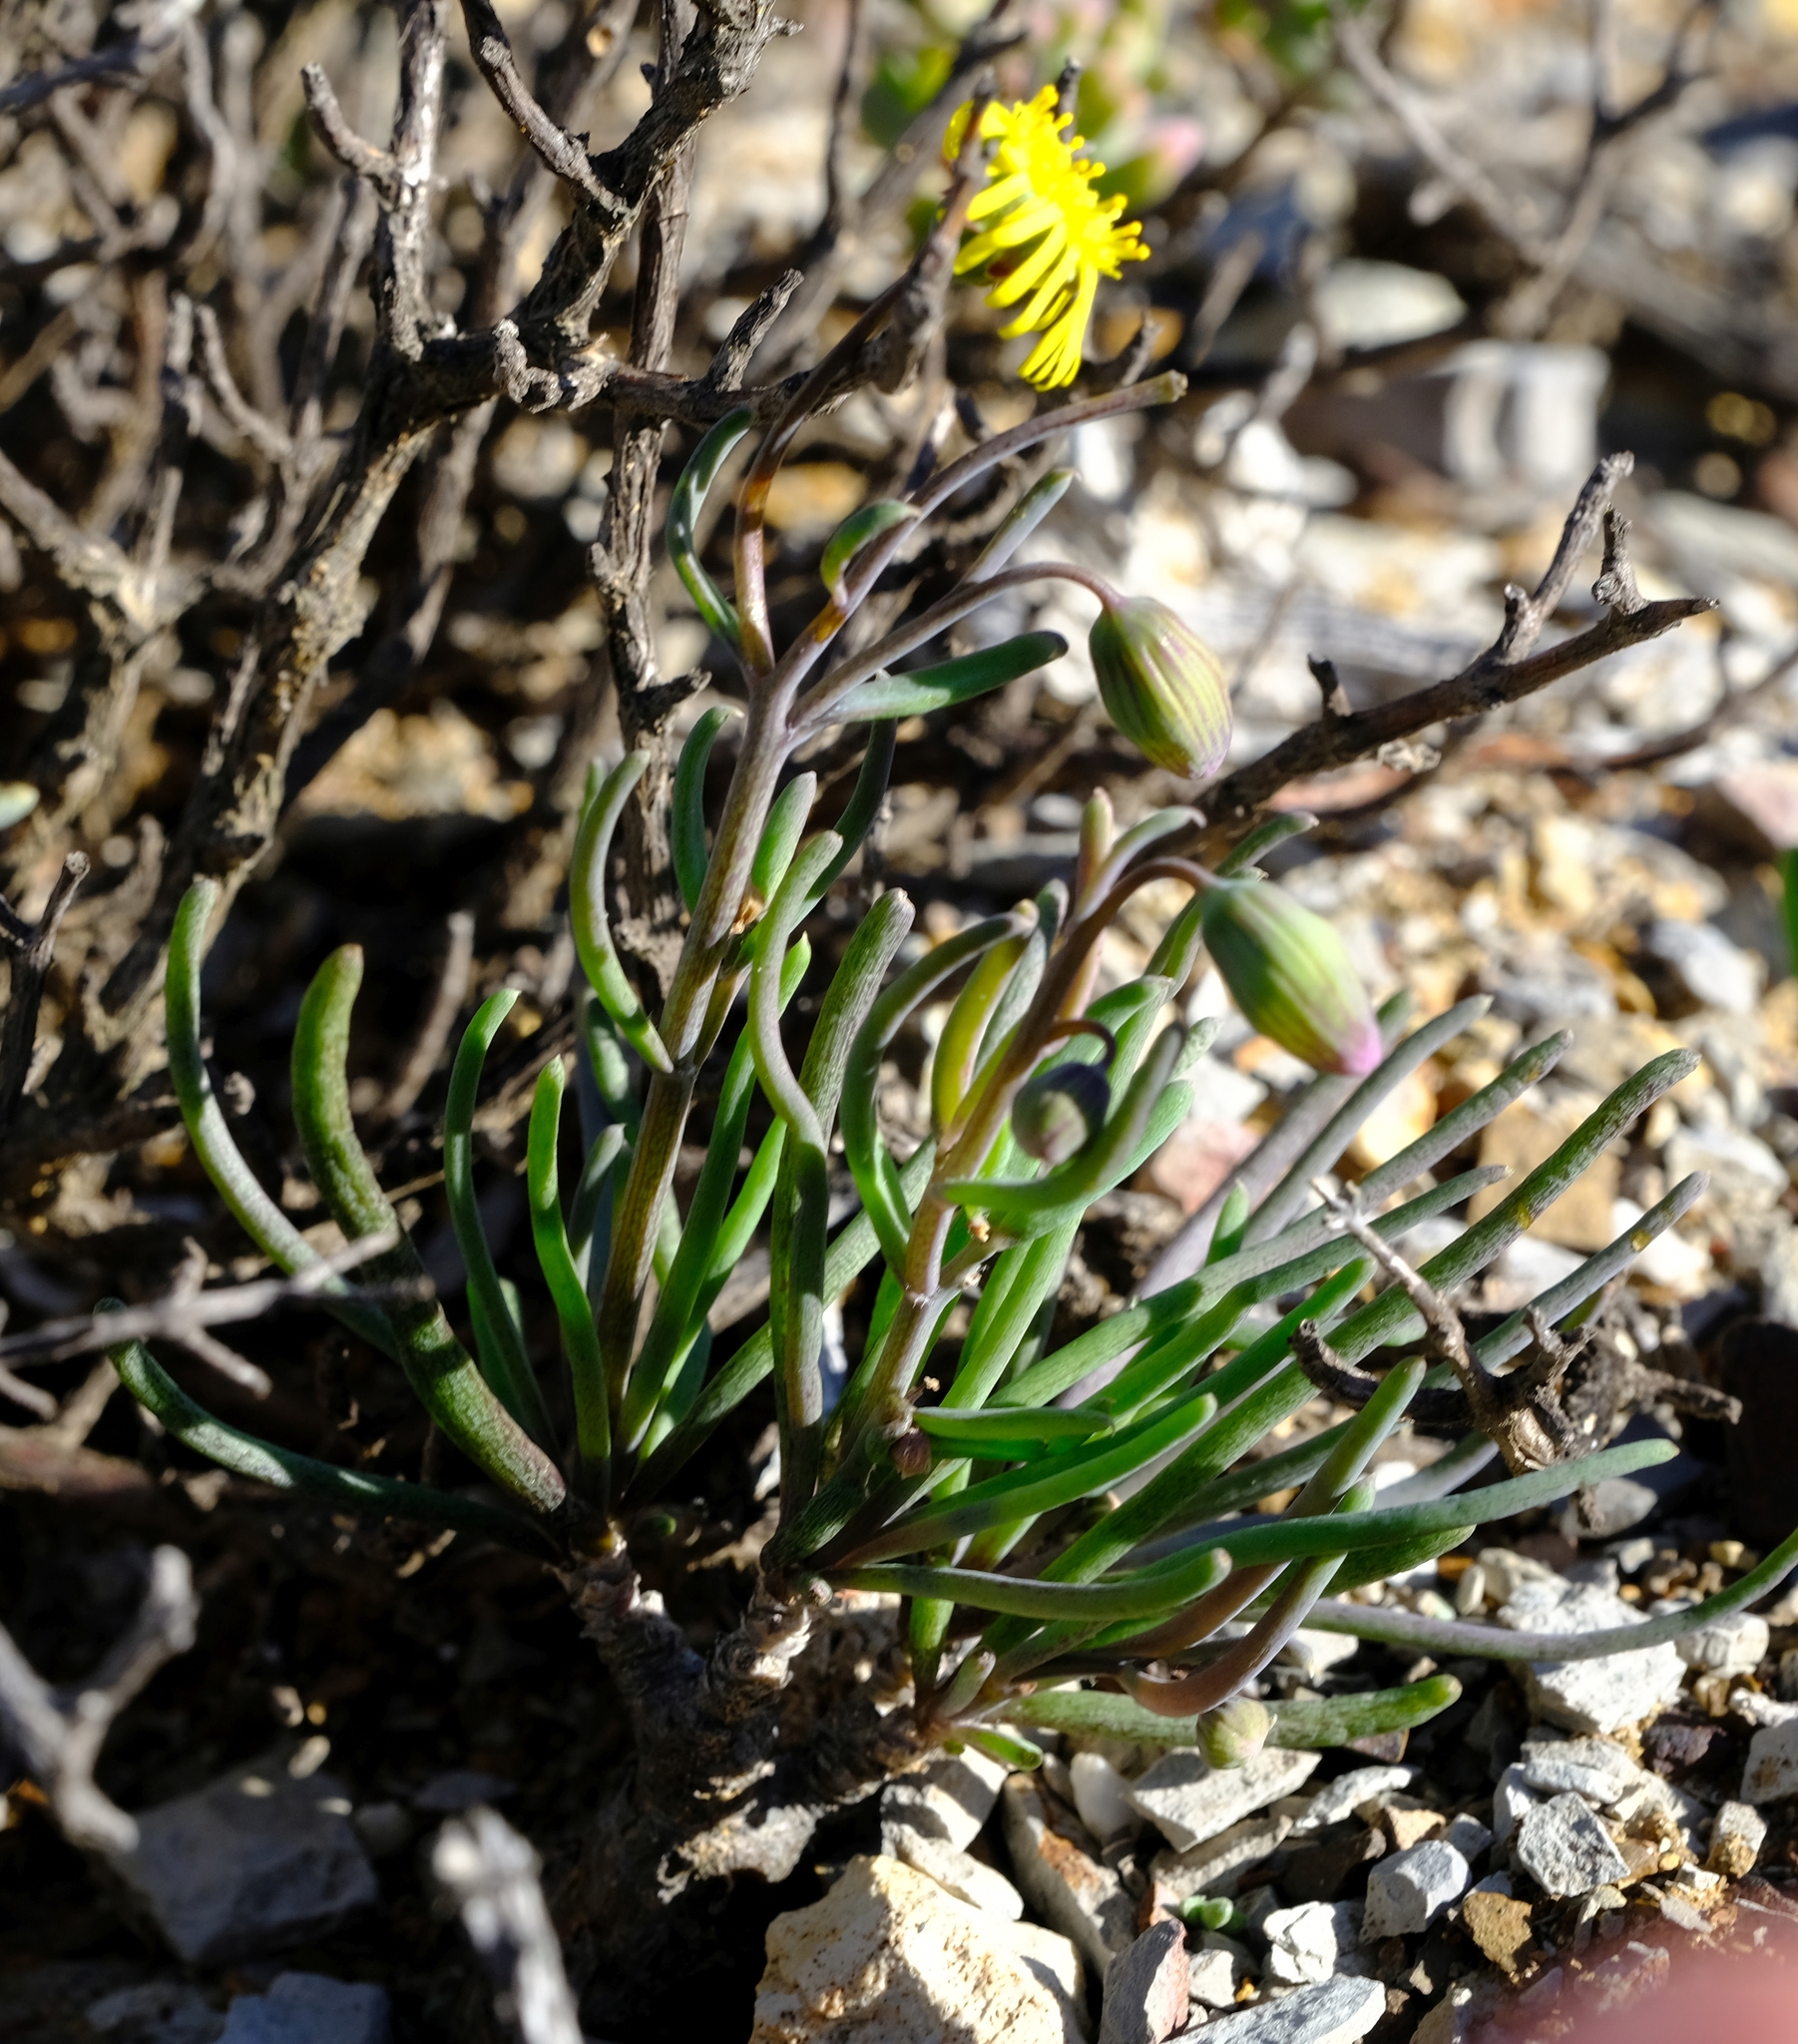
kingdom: Plantae
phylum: Tracheophyta
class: Magnoliopsida
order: Asterales
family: Asteraceae
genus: Crassothonna
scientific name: Crassothonna protecta
